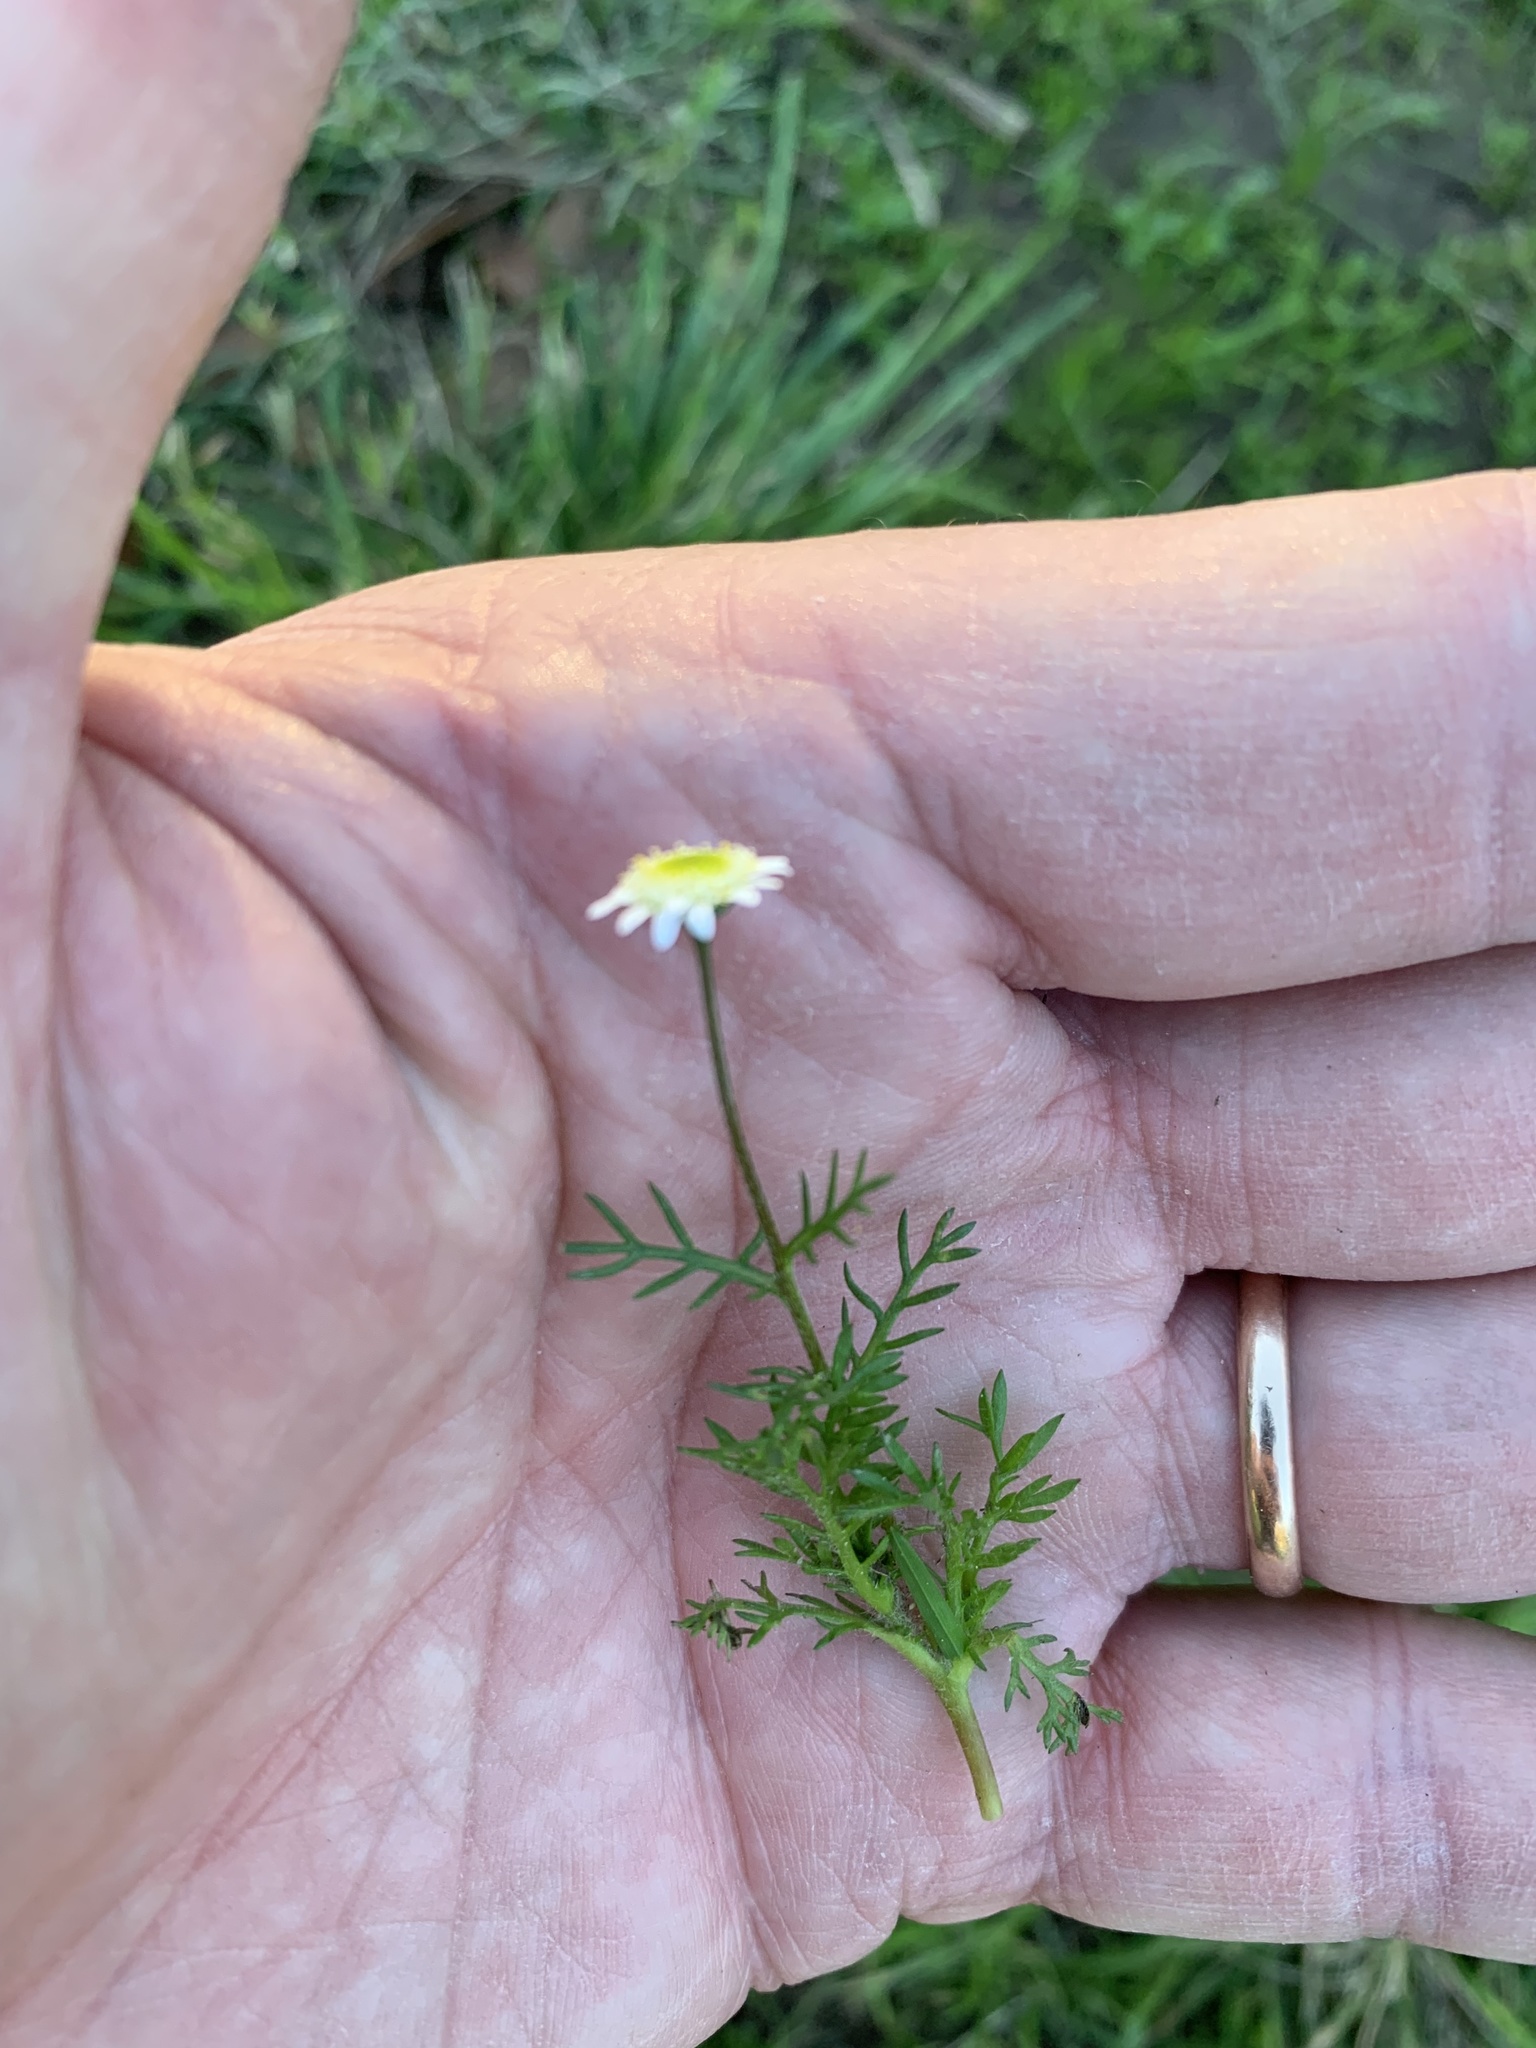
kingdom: Plantae
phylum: Tracheophyta
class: Magnoliopsida
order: Asterales
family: Asteraceae
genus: Cotula
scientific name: Cotula turbinata
